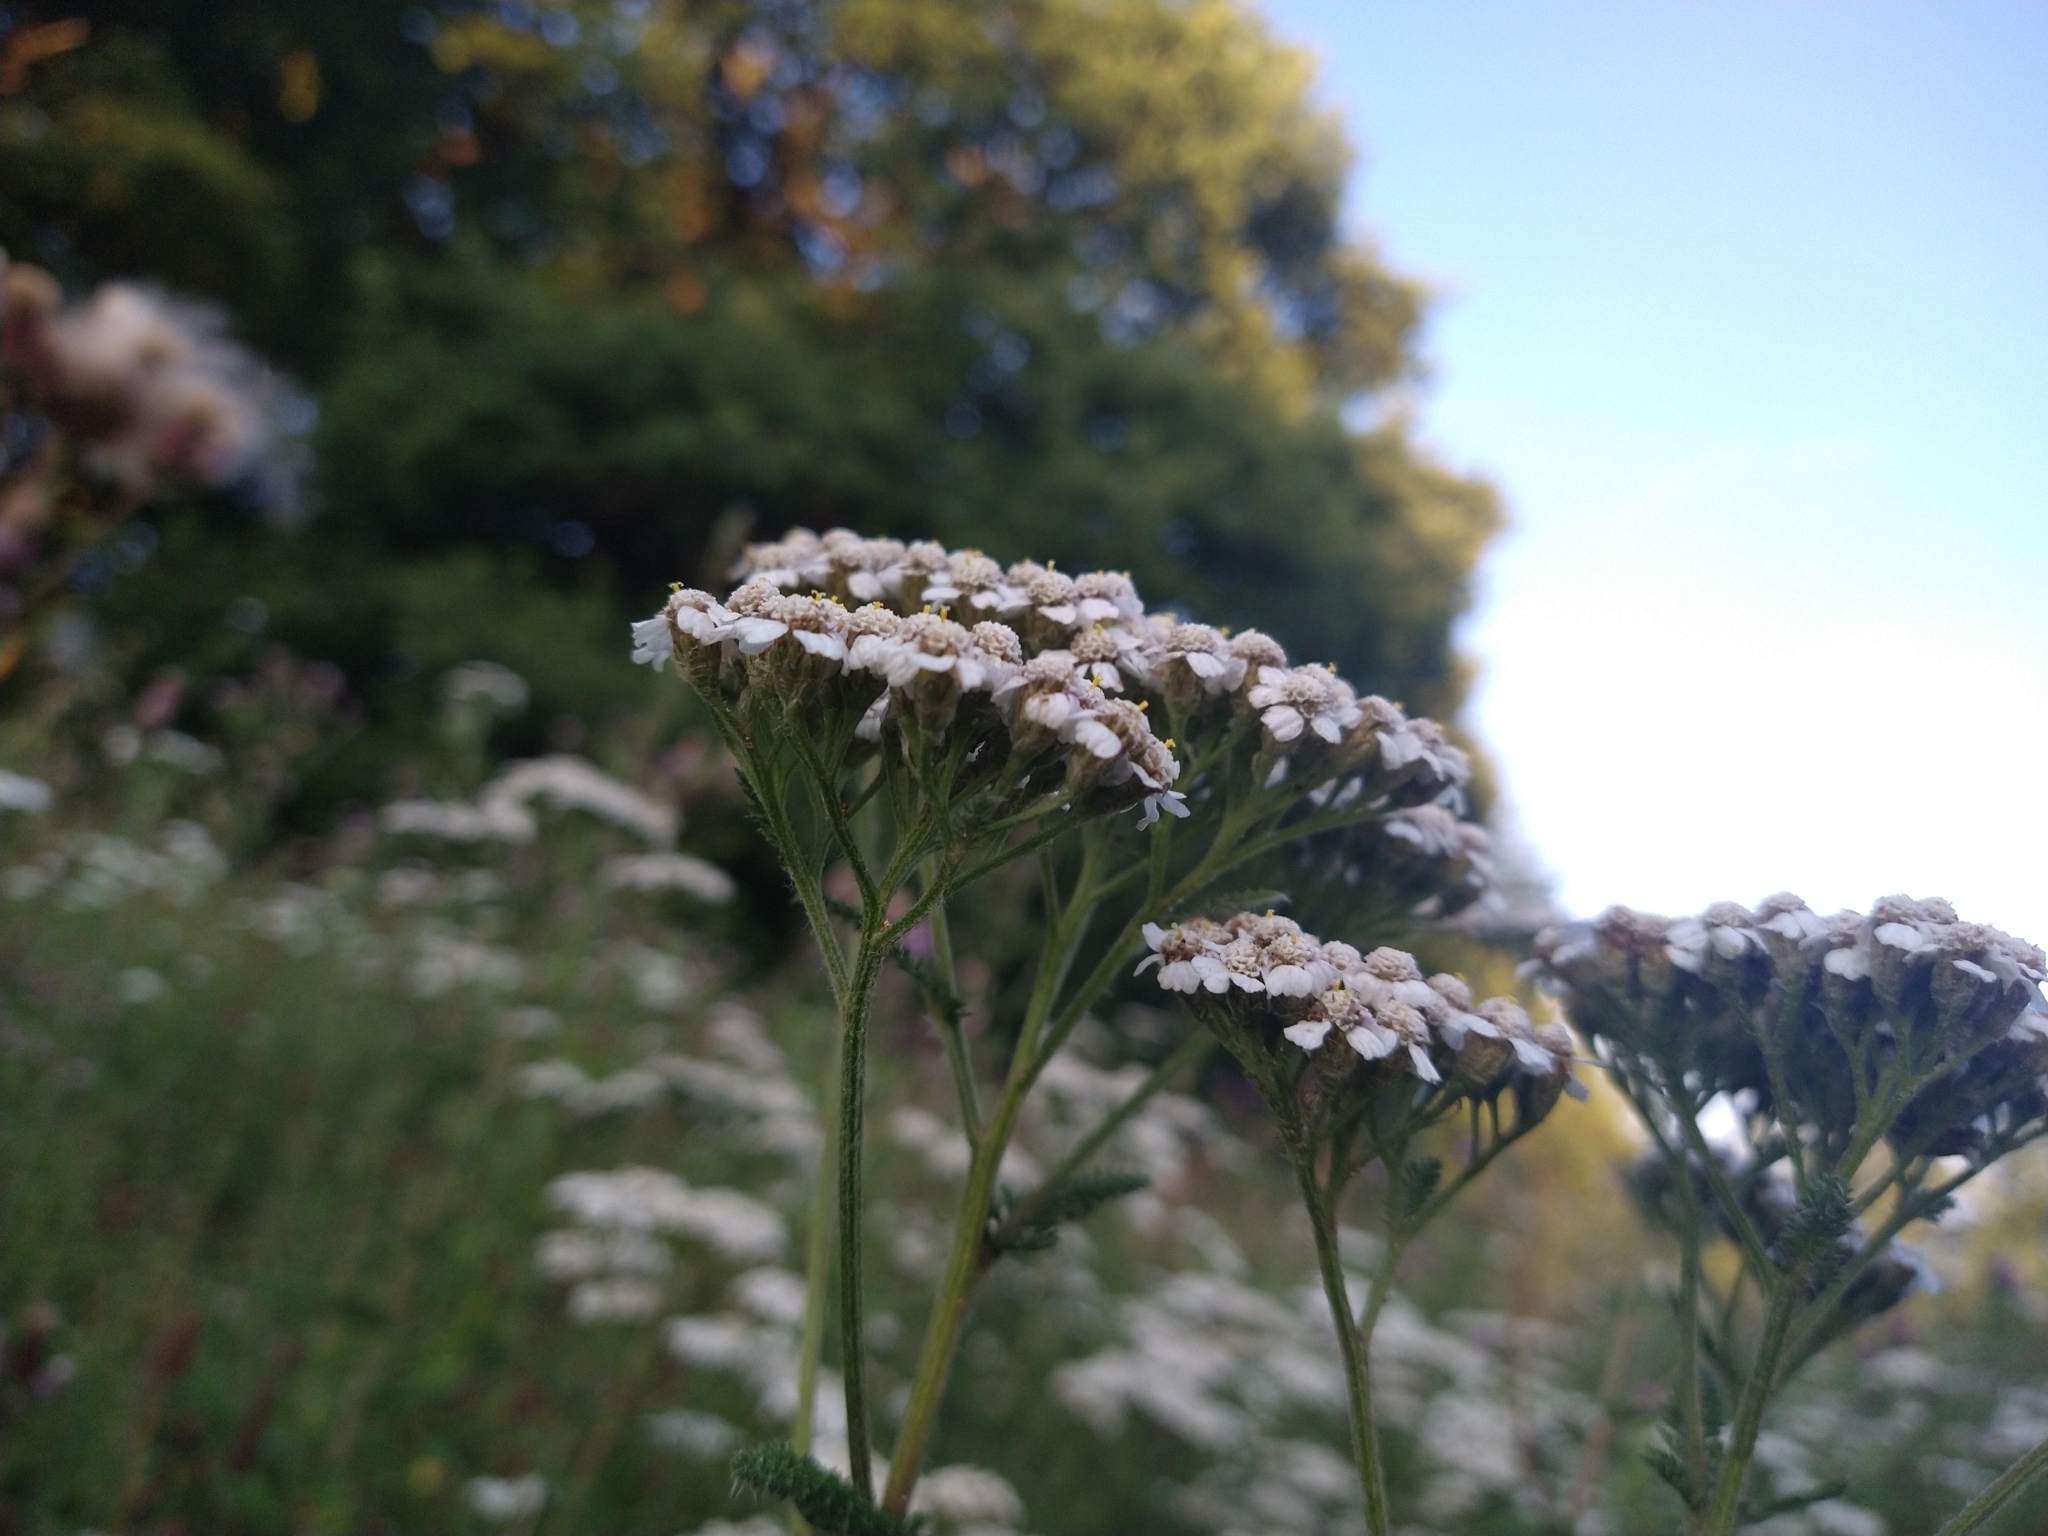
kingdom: Plantae
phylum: Tracheophyta
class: Magnoliopsida
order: Asterales
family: Asteraceae
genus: Achillea
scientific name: Achillea millefolium
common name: Yarrow
